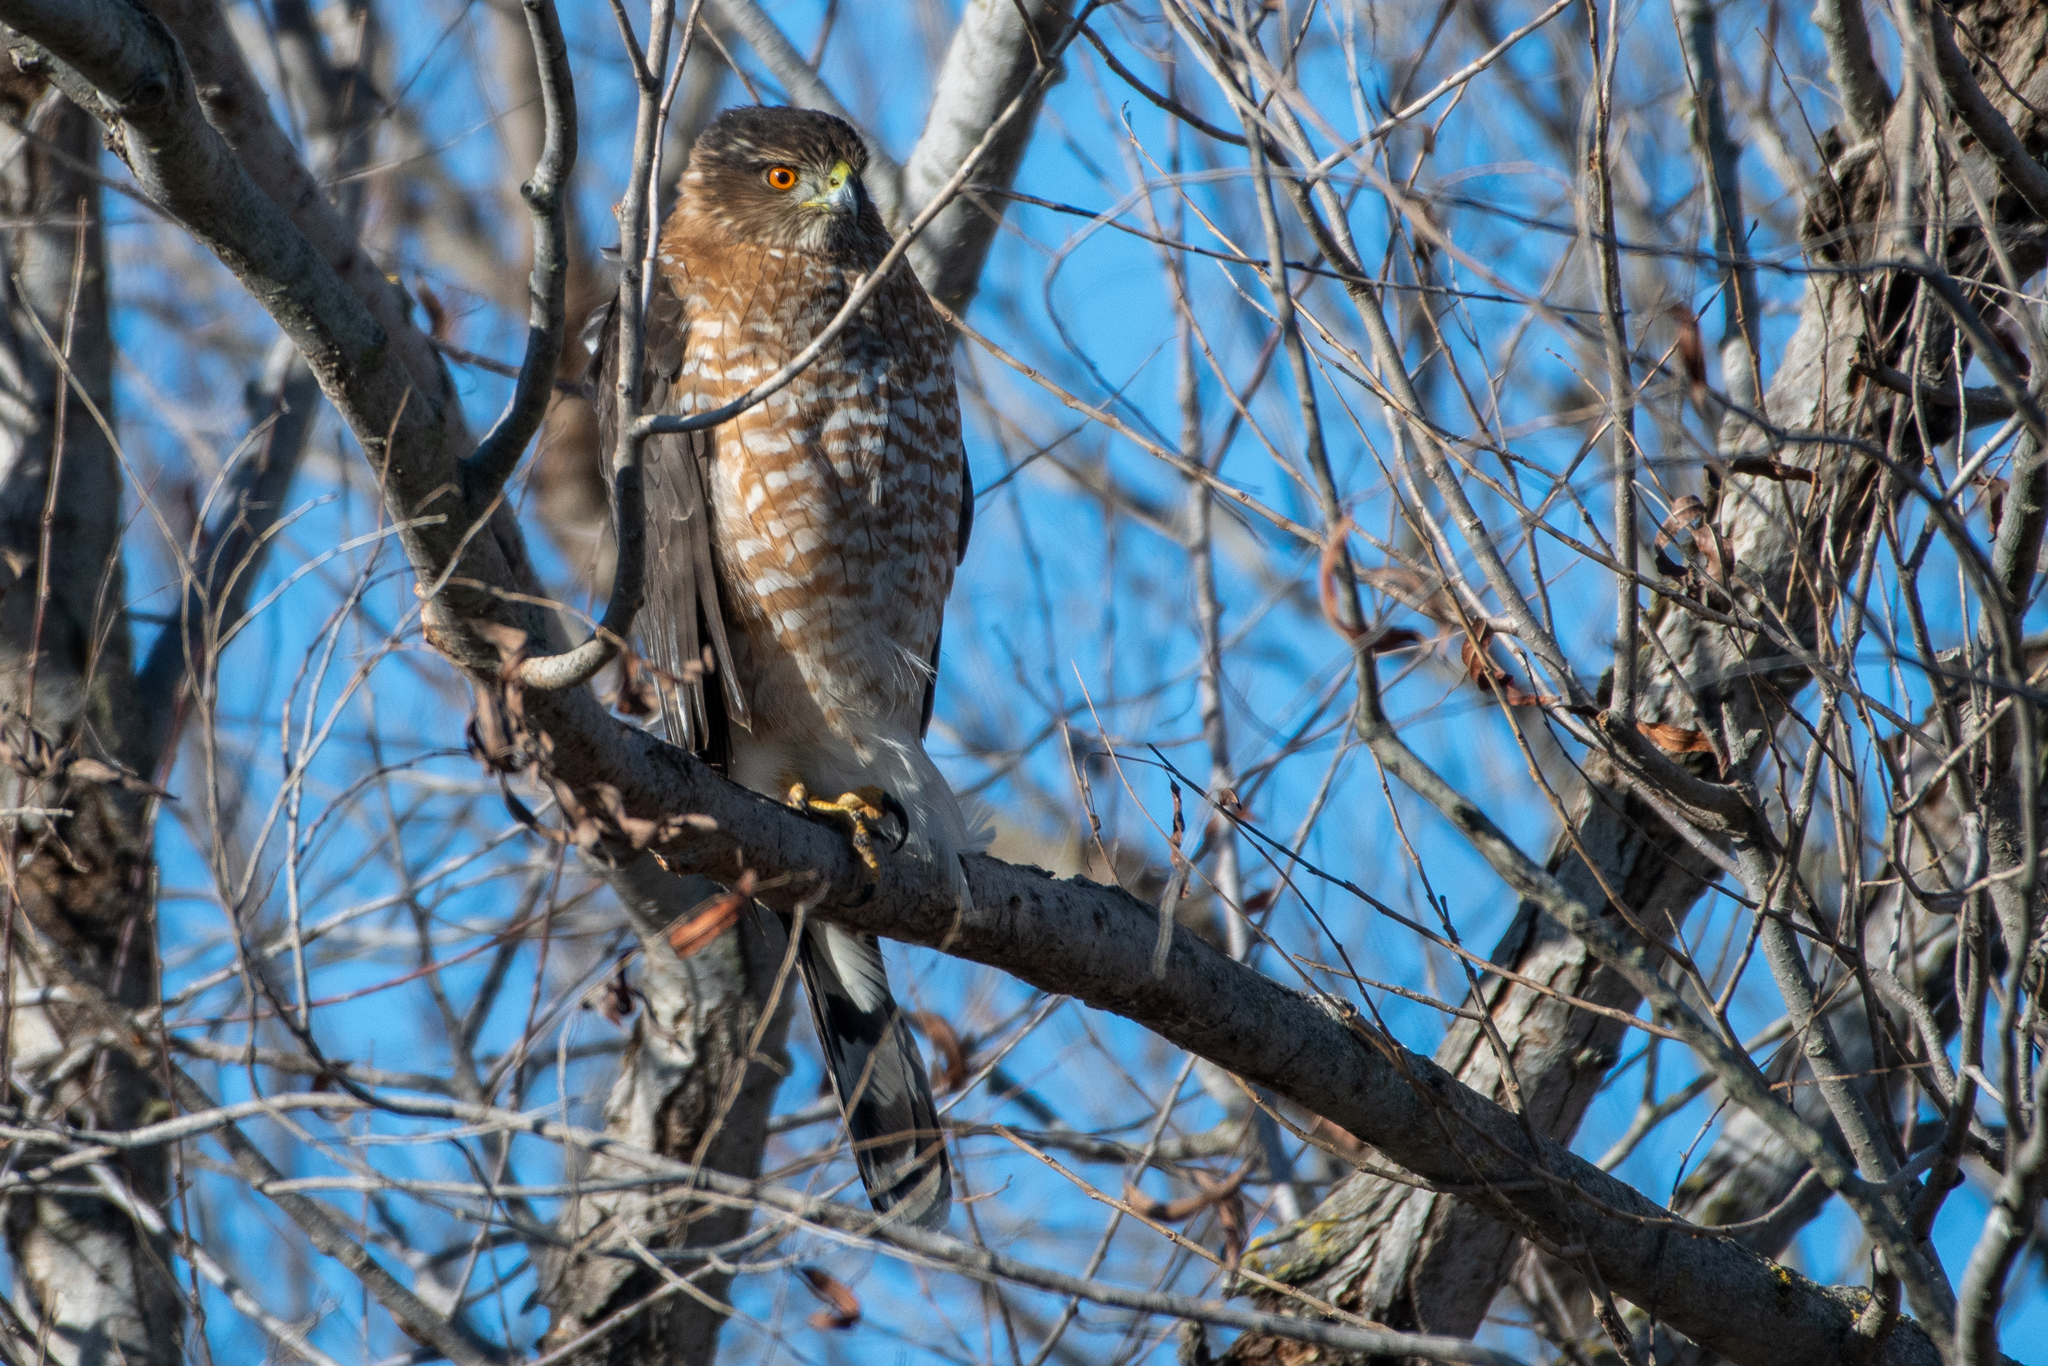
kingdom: Animalia
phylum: Chordata
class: Aves
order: Accipitriformes
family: Accipitridae
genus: Accipiter
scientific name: Accipiter cooperii
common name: Cooper's hawk
